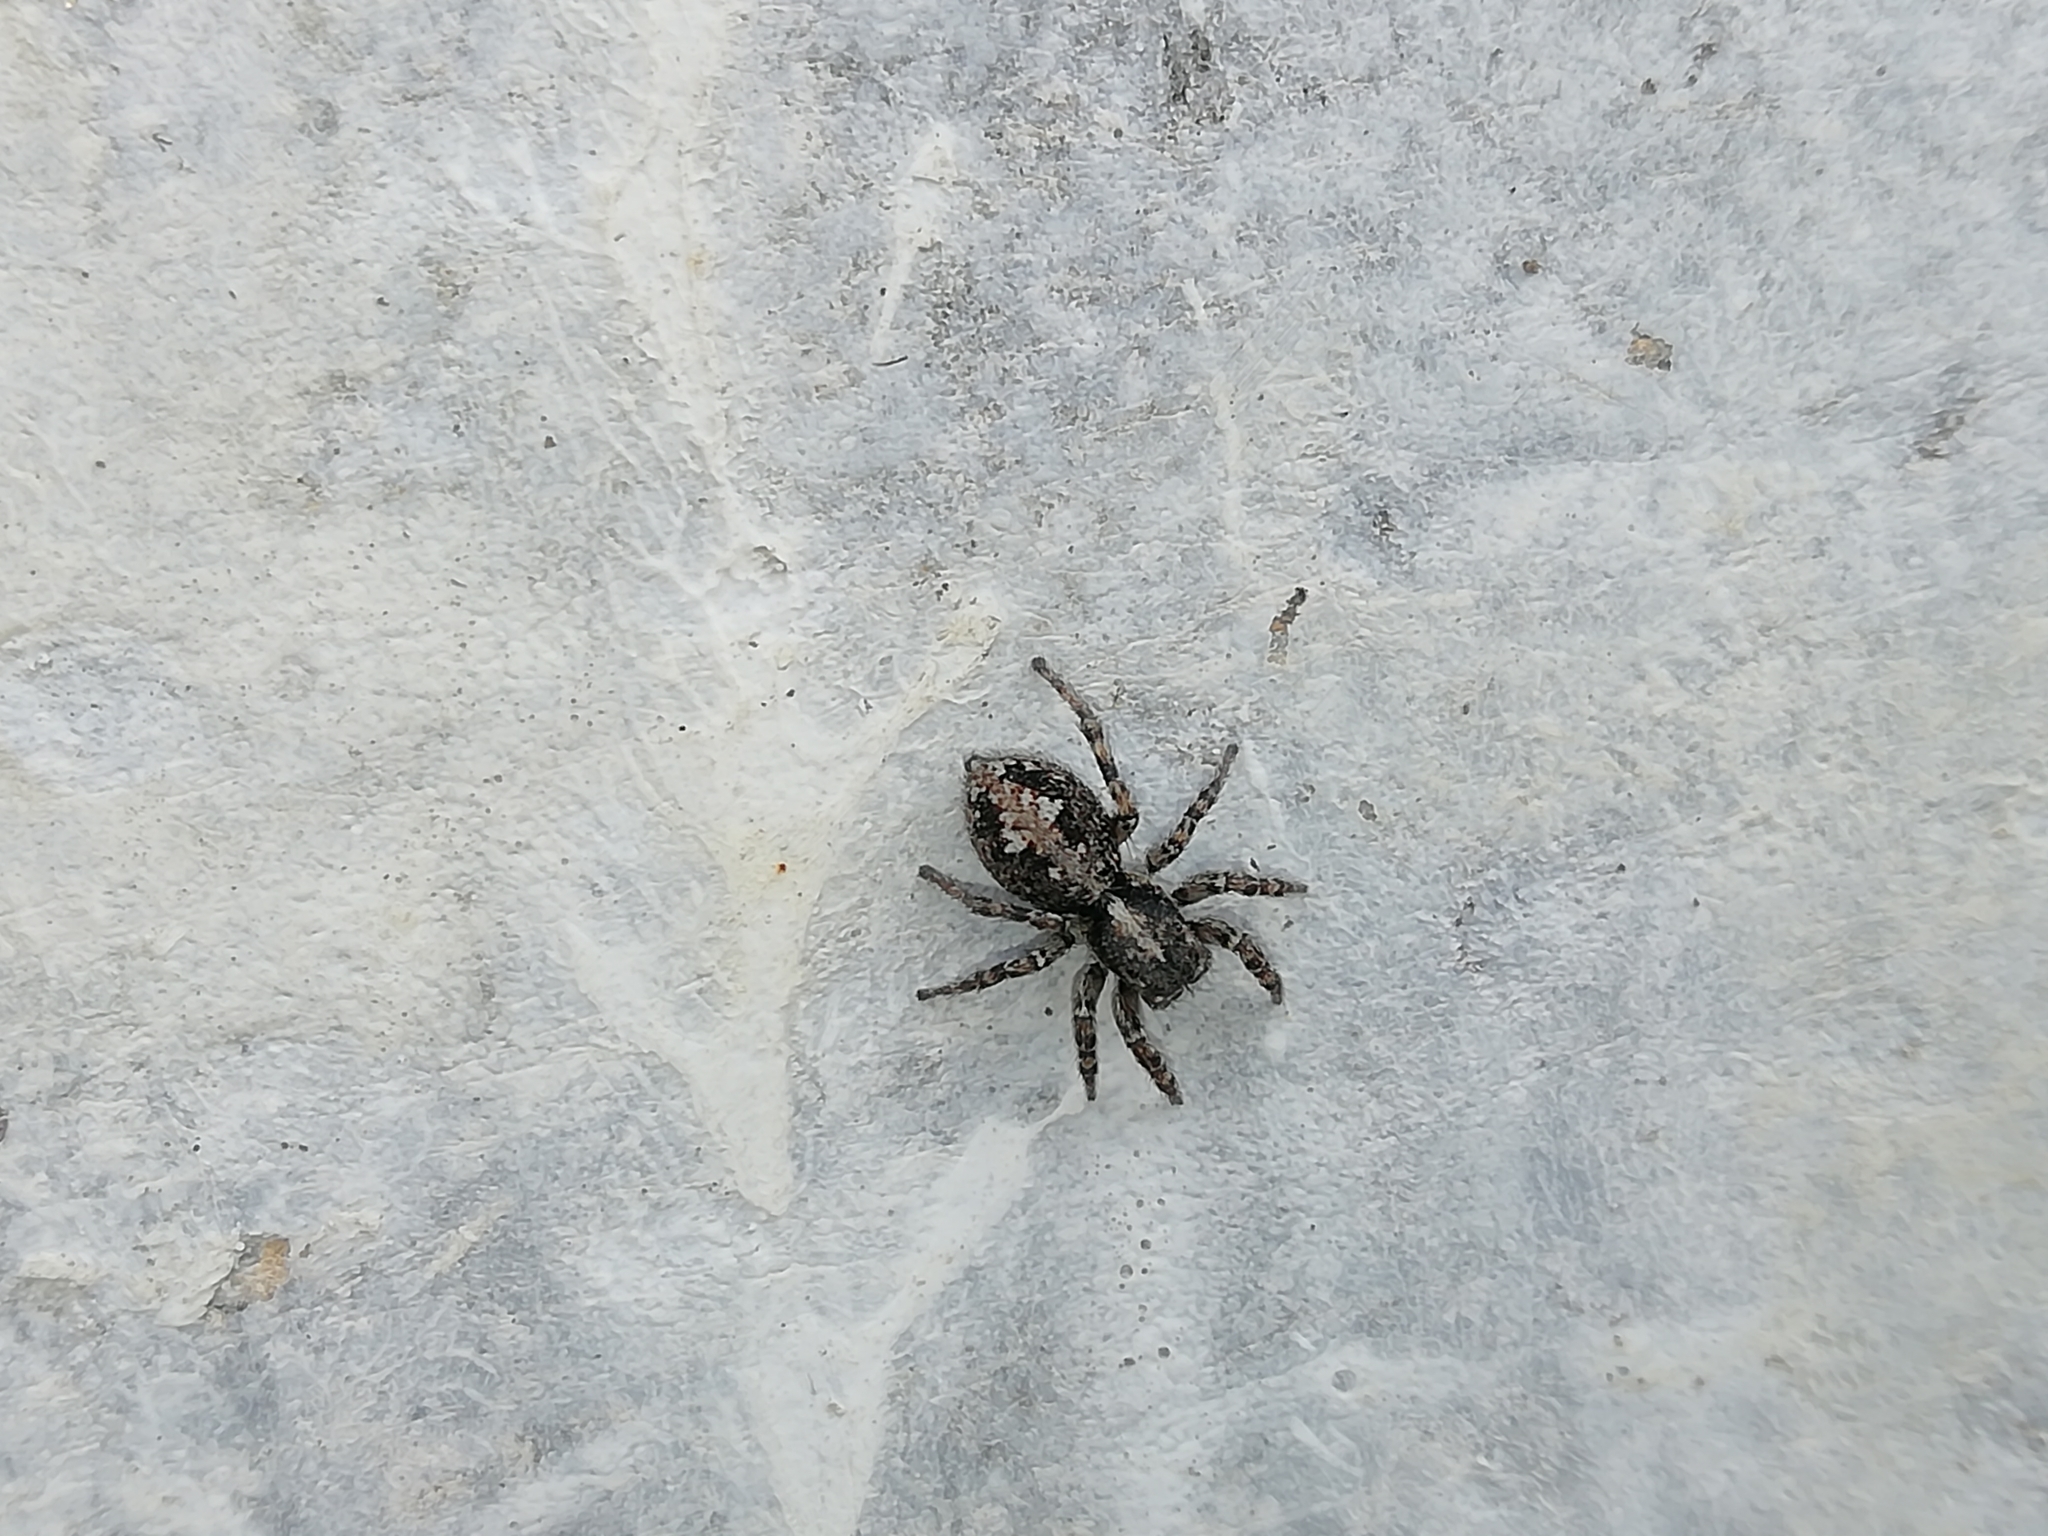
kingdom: Animalia
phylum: Arthropoda
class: Arachnida
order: Araneae
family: Salticidae
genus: Attulus
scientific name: Attulus terebratus
